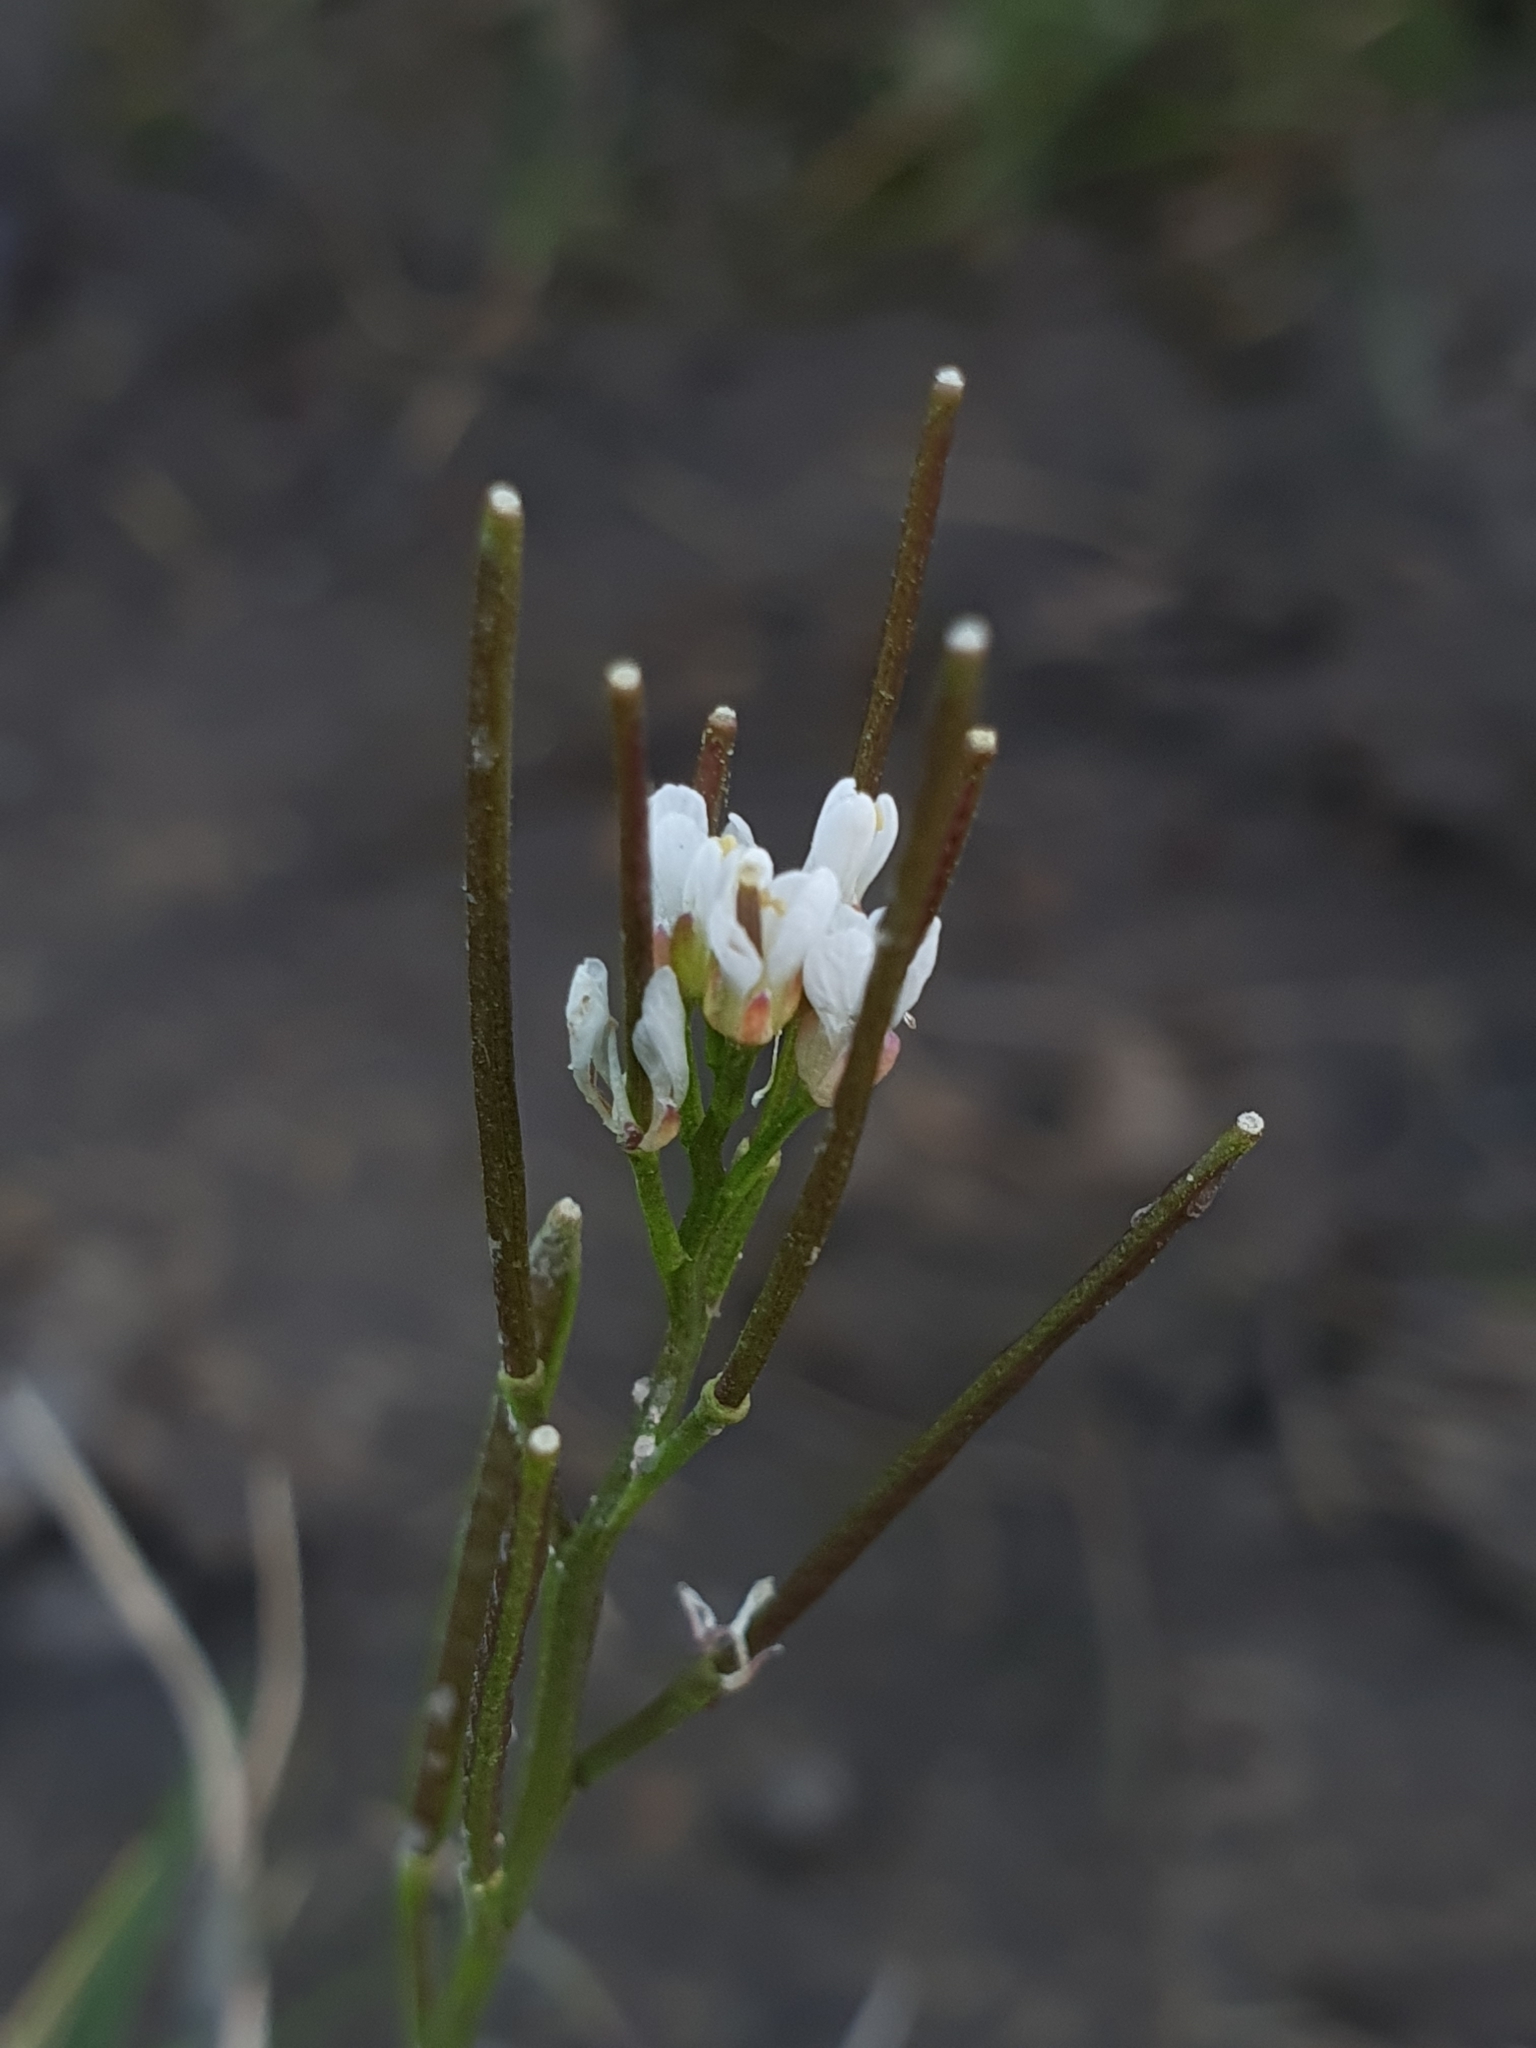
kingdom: Plantae
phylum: Tracheophyta
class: Magnoliopsida
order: Brassicales
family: Brassicaceae
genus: Cardamine
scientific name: Cardamine hirsuta
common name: Hairy bittercress
